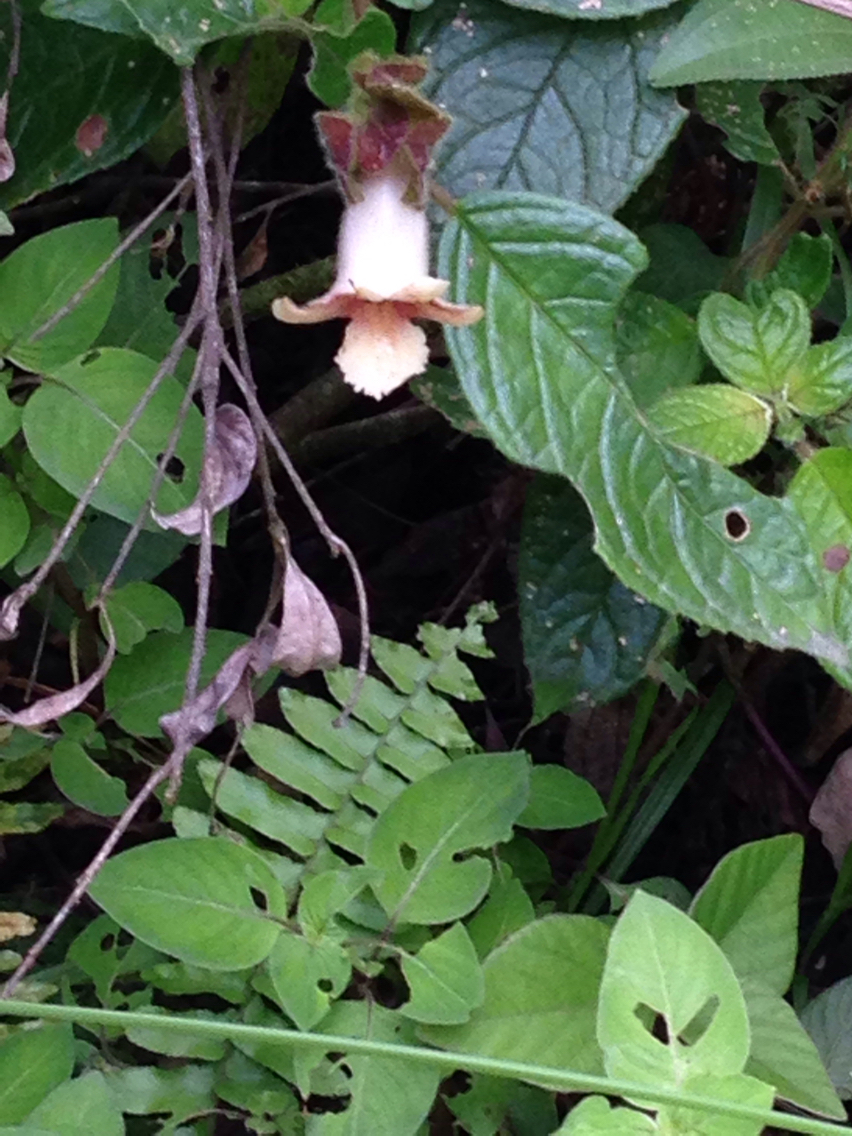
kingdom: Plantae
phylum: Tracheophyta
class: Magnoliopsida
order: Lamiales
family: Gesneriaceae
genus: Drymonia
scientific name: Drymonia alloplectoides
